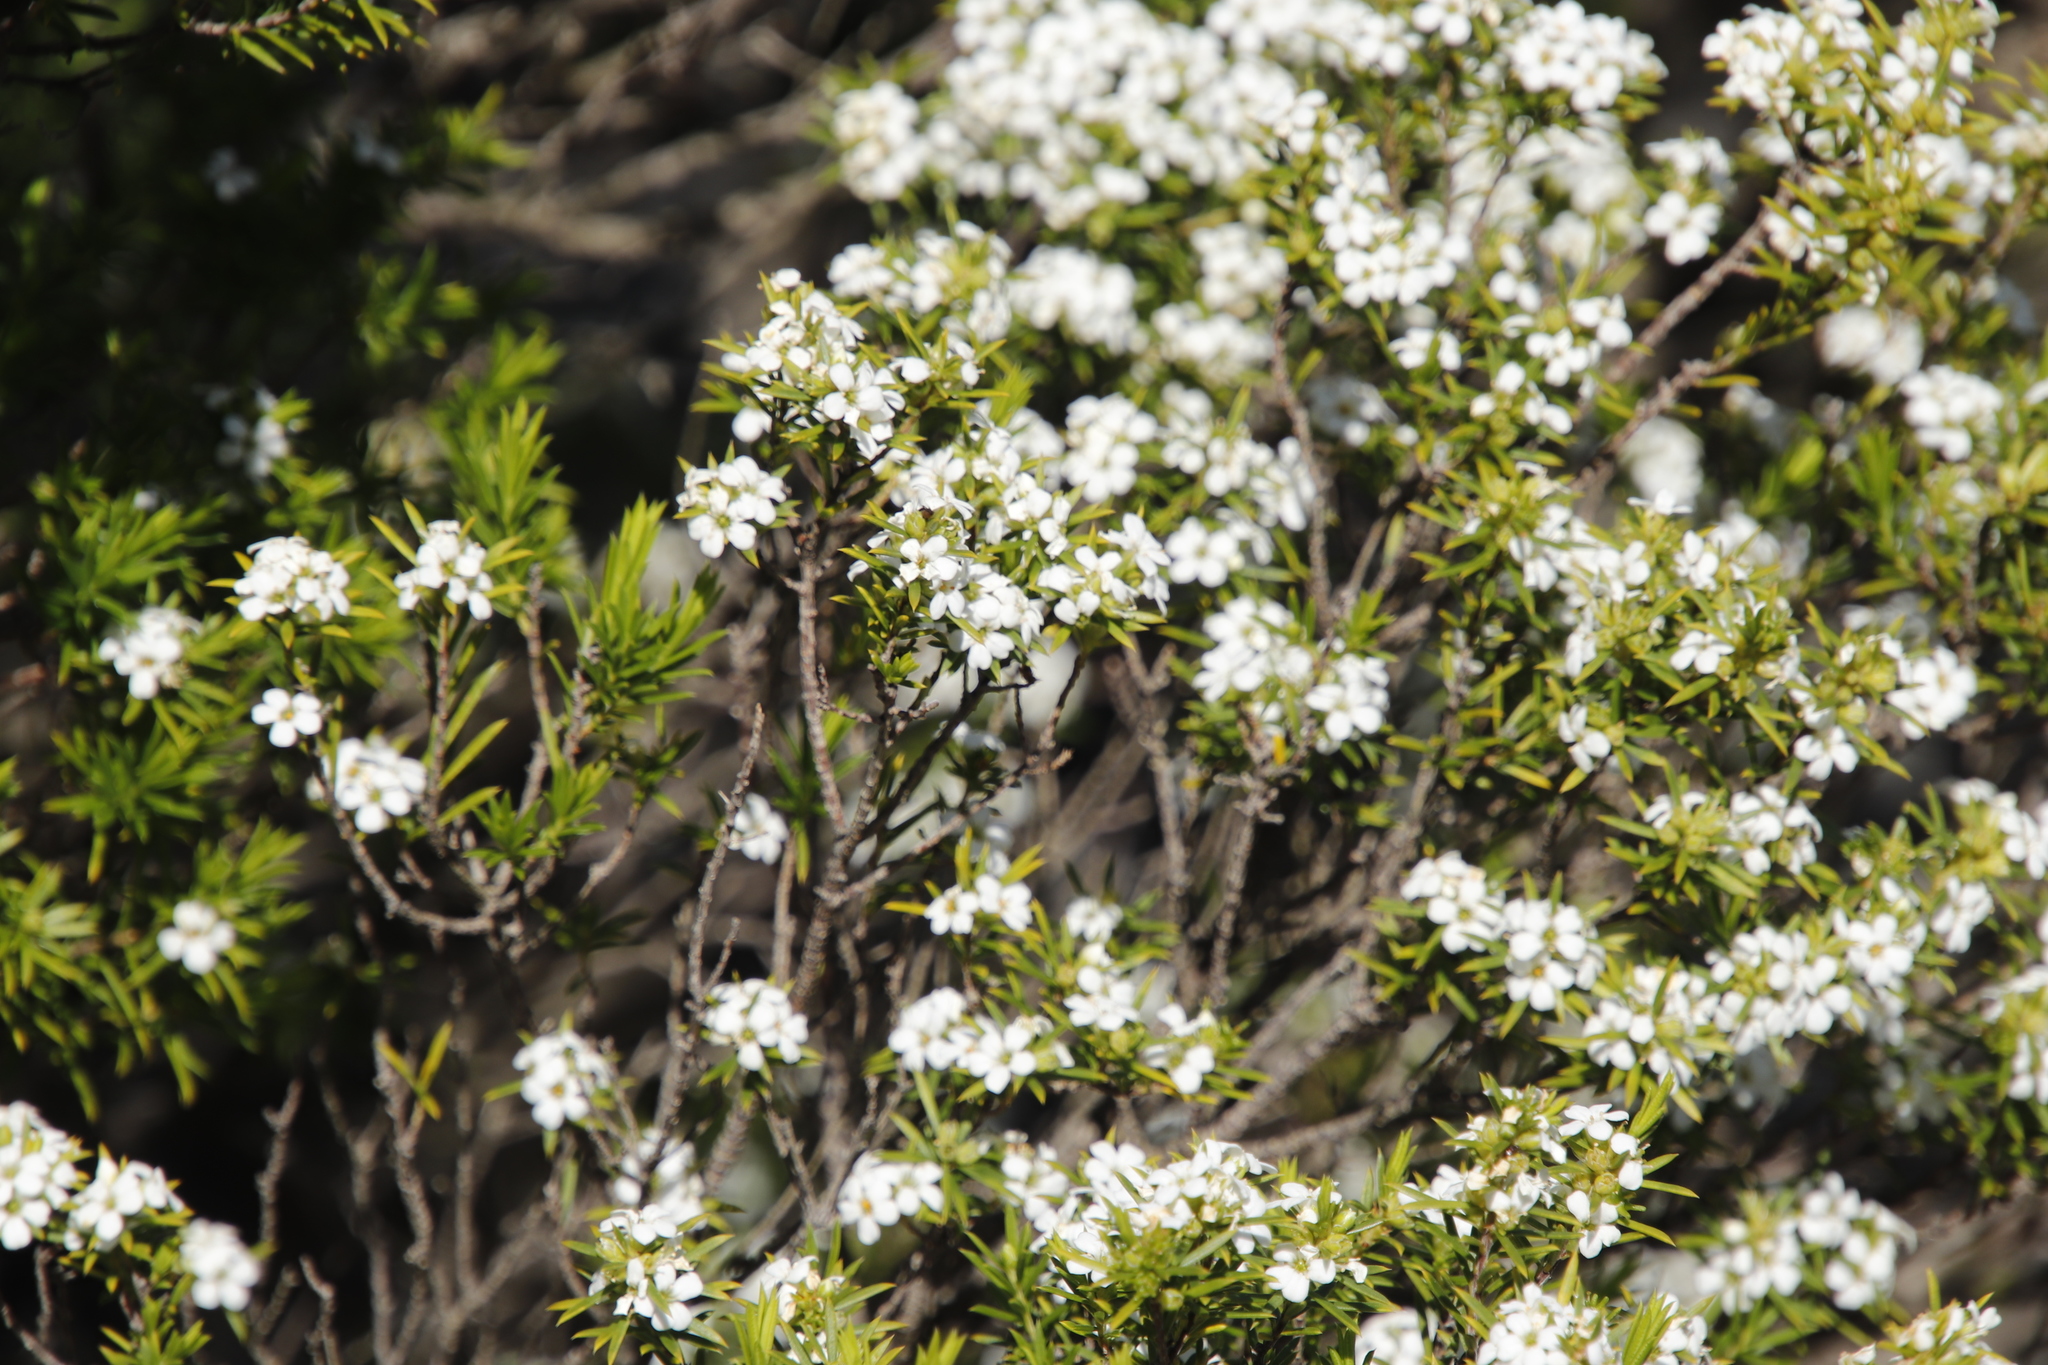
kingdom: Plantae
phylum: Tracheophyta
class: Magnoliopsida
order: Sapindales
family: Rutaceae
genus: Coleonema
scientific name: Coleonema album
